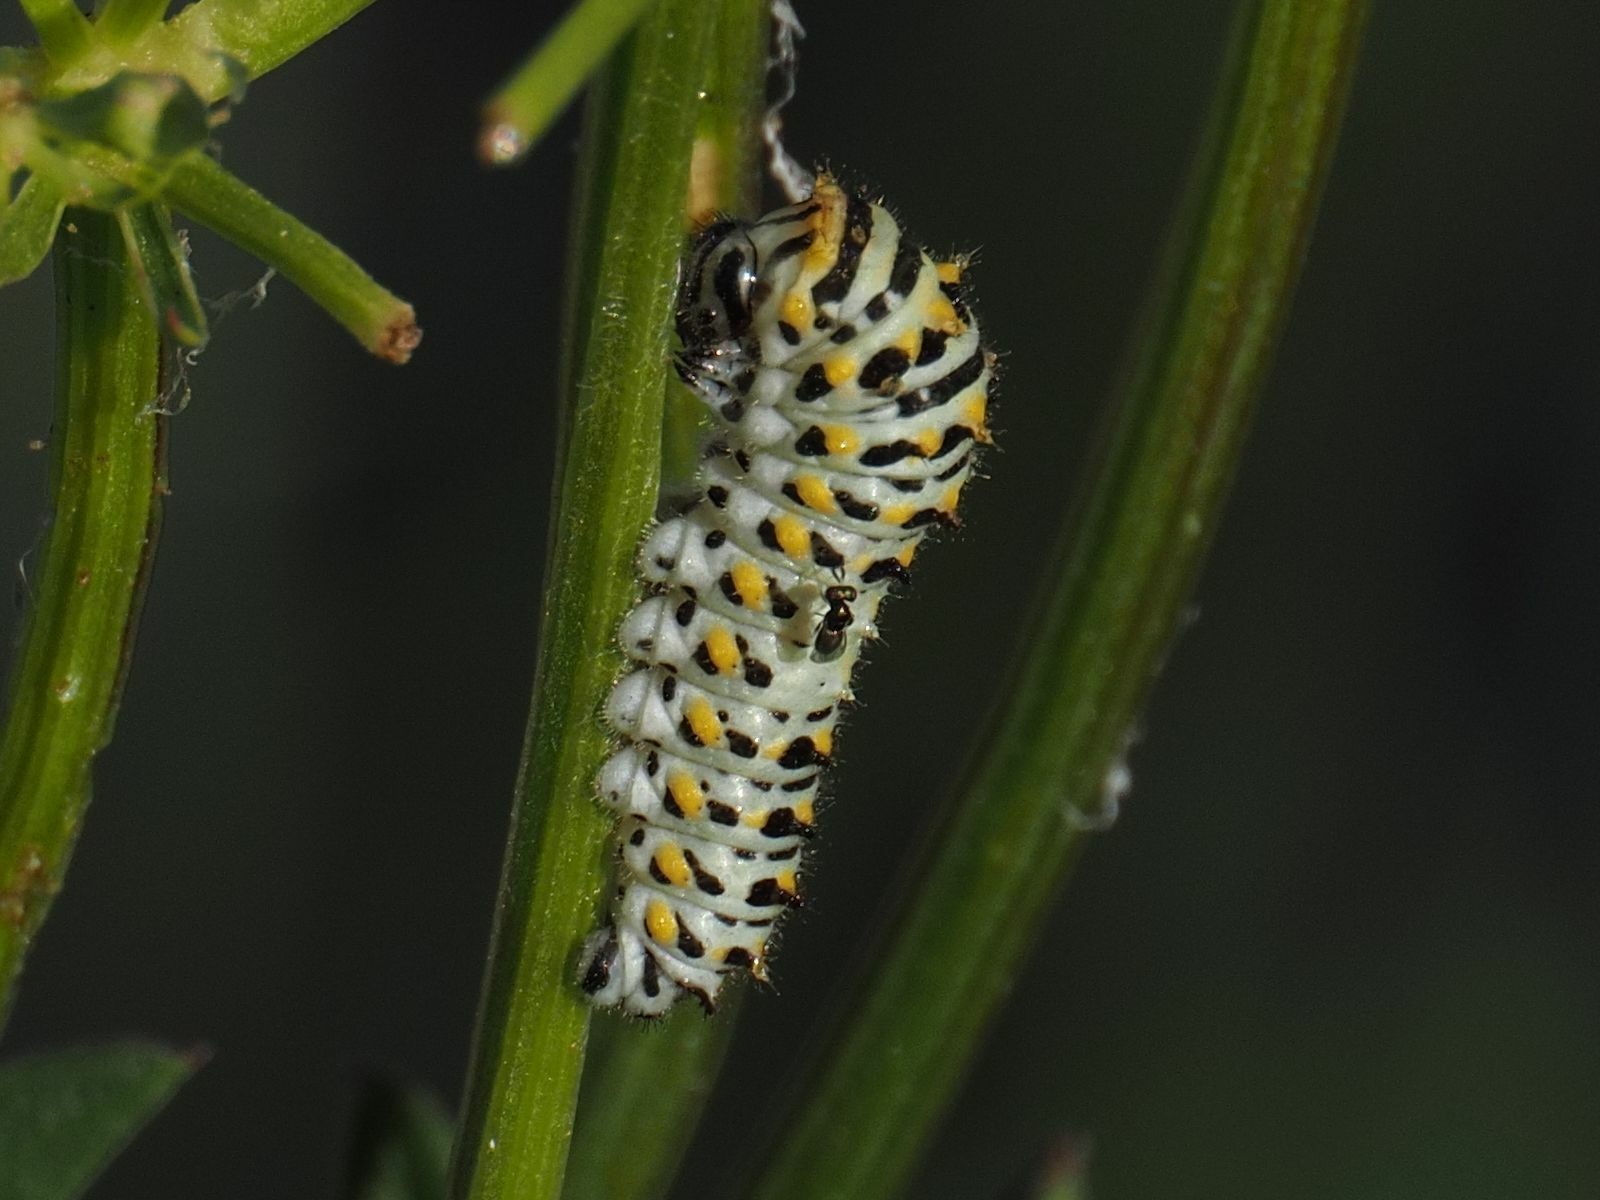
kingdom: Animalia
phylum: Arthropoda
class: Insecta
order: Lepidoptera
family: Papilionidae
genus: Papilio
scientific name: Papilio machaon
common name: Swallowtail
